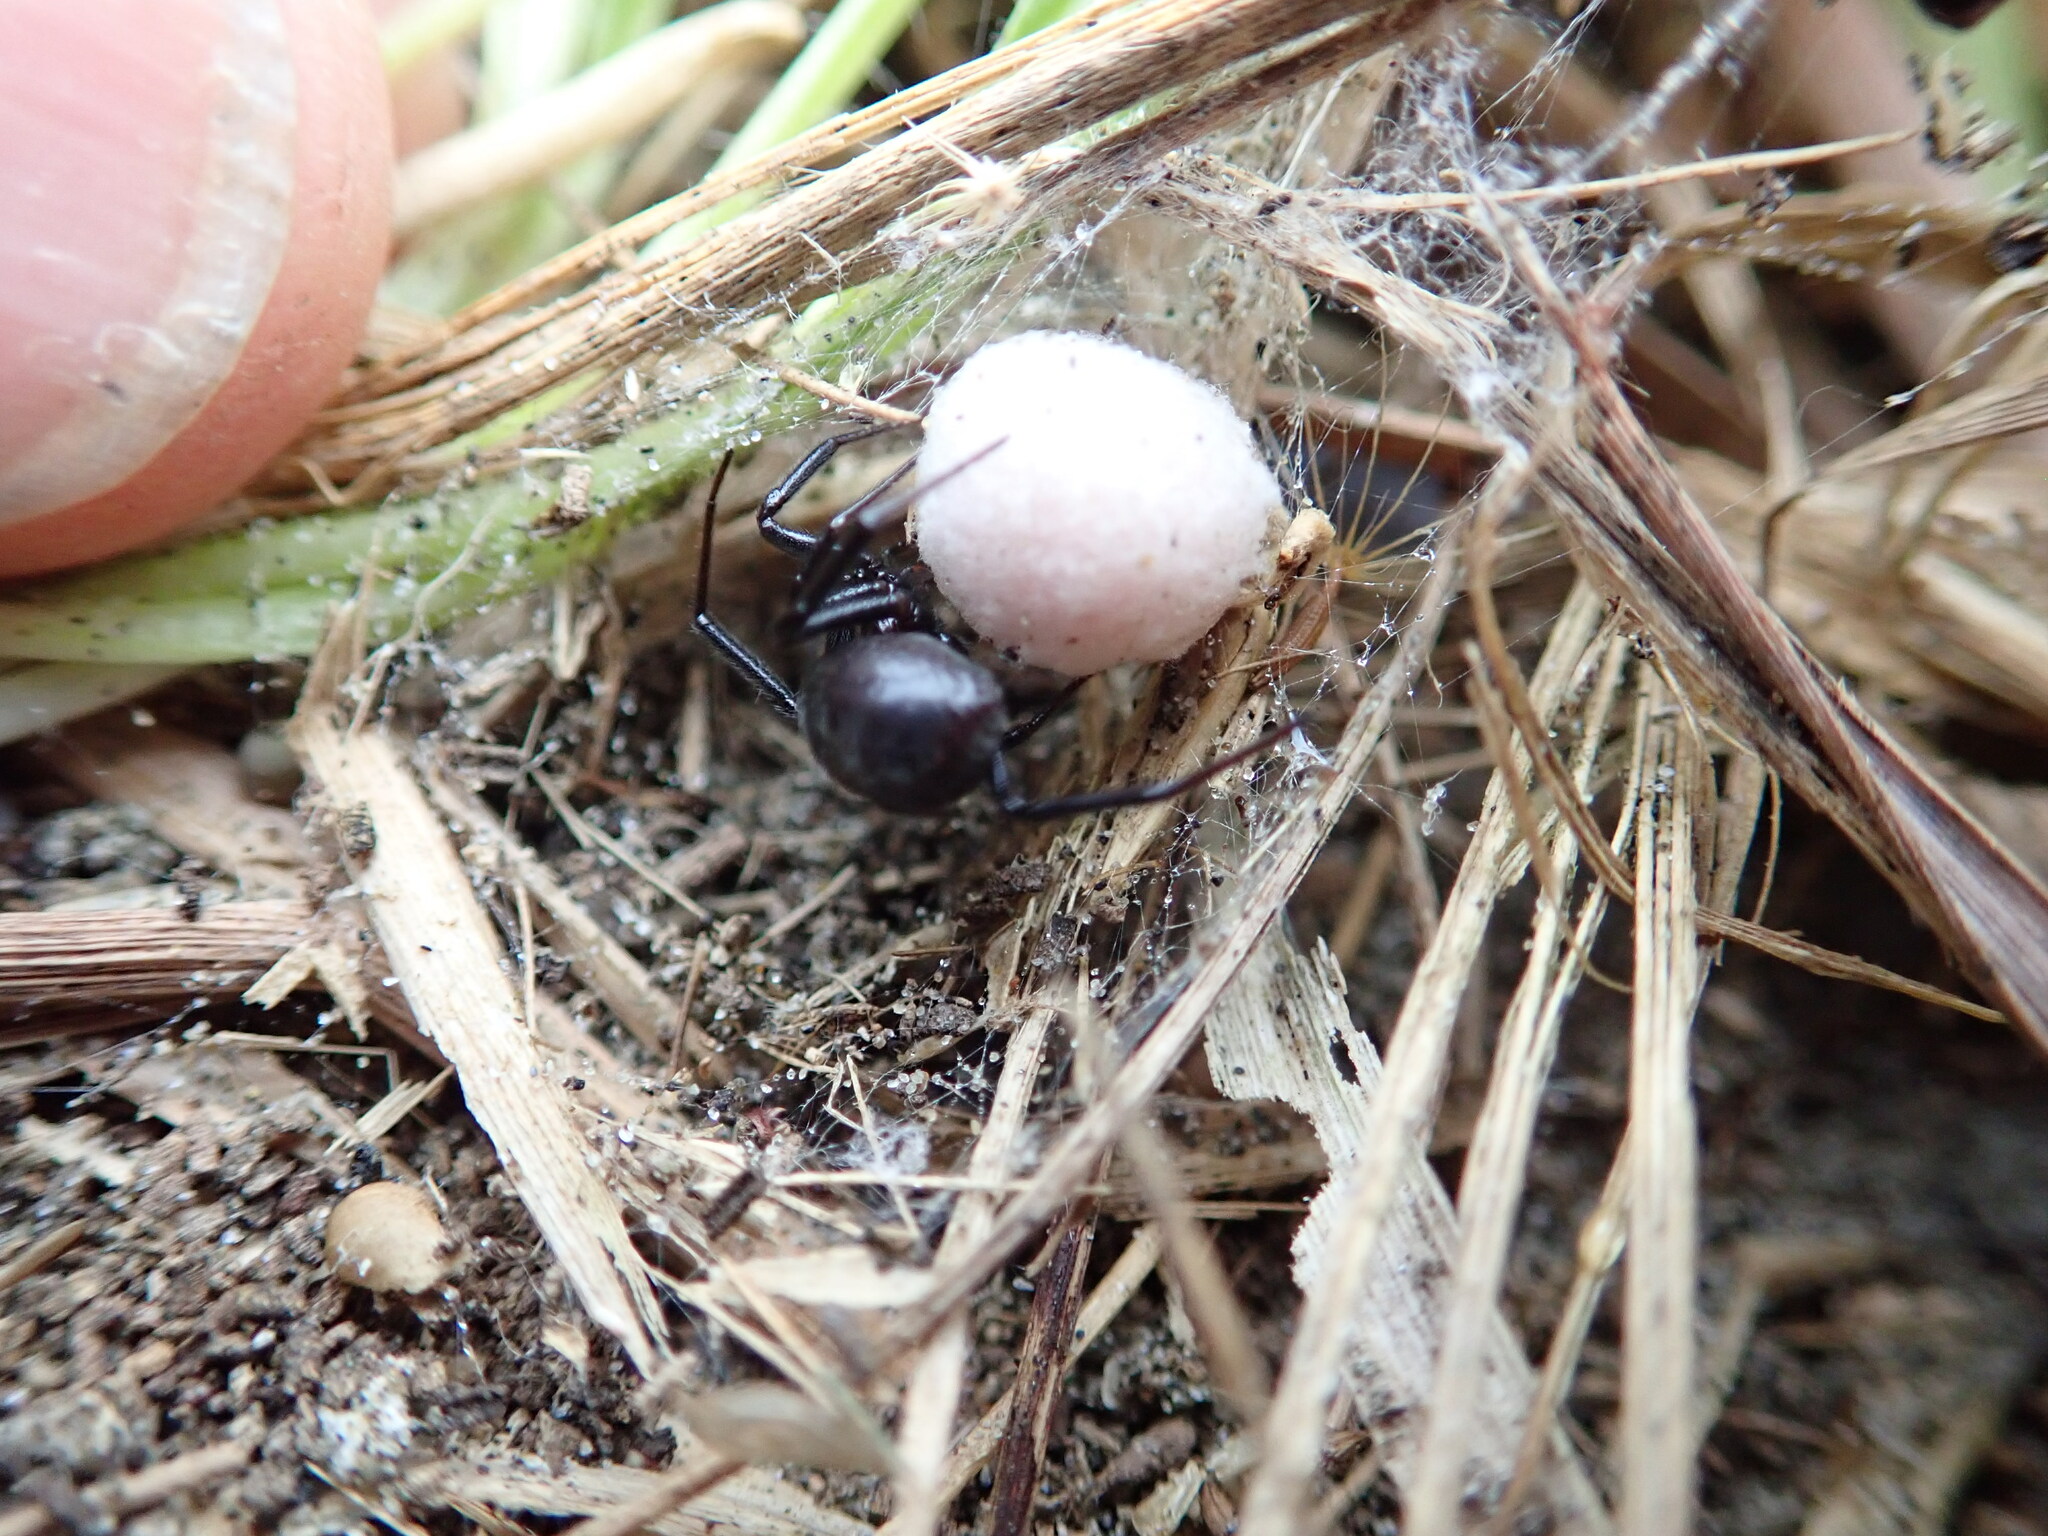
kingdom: Animalia
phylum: Arthropoda
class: Arachnida
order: Araneae
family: Theridiidae
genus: Steatoda
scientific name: Steatoda capensis
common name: Cobweb weaver
